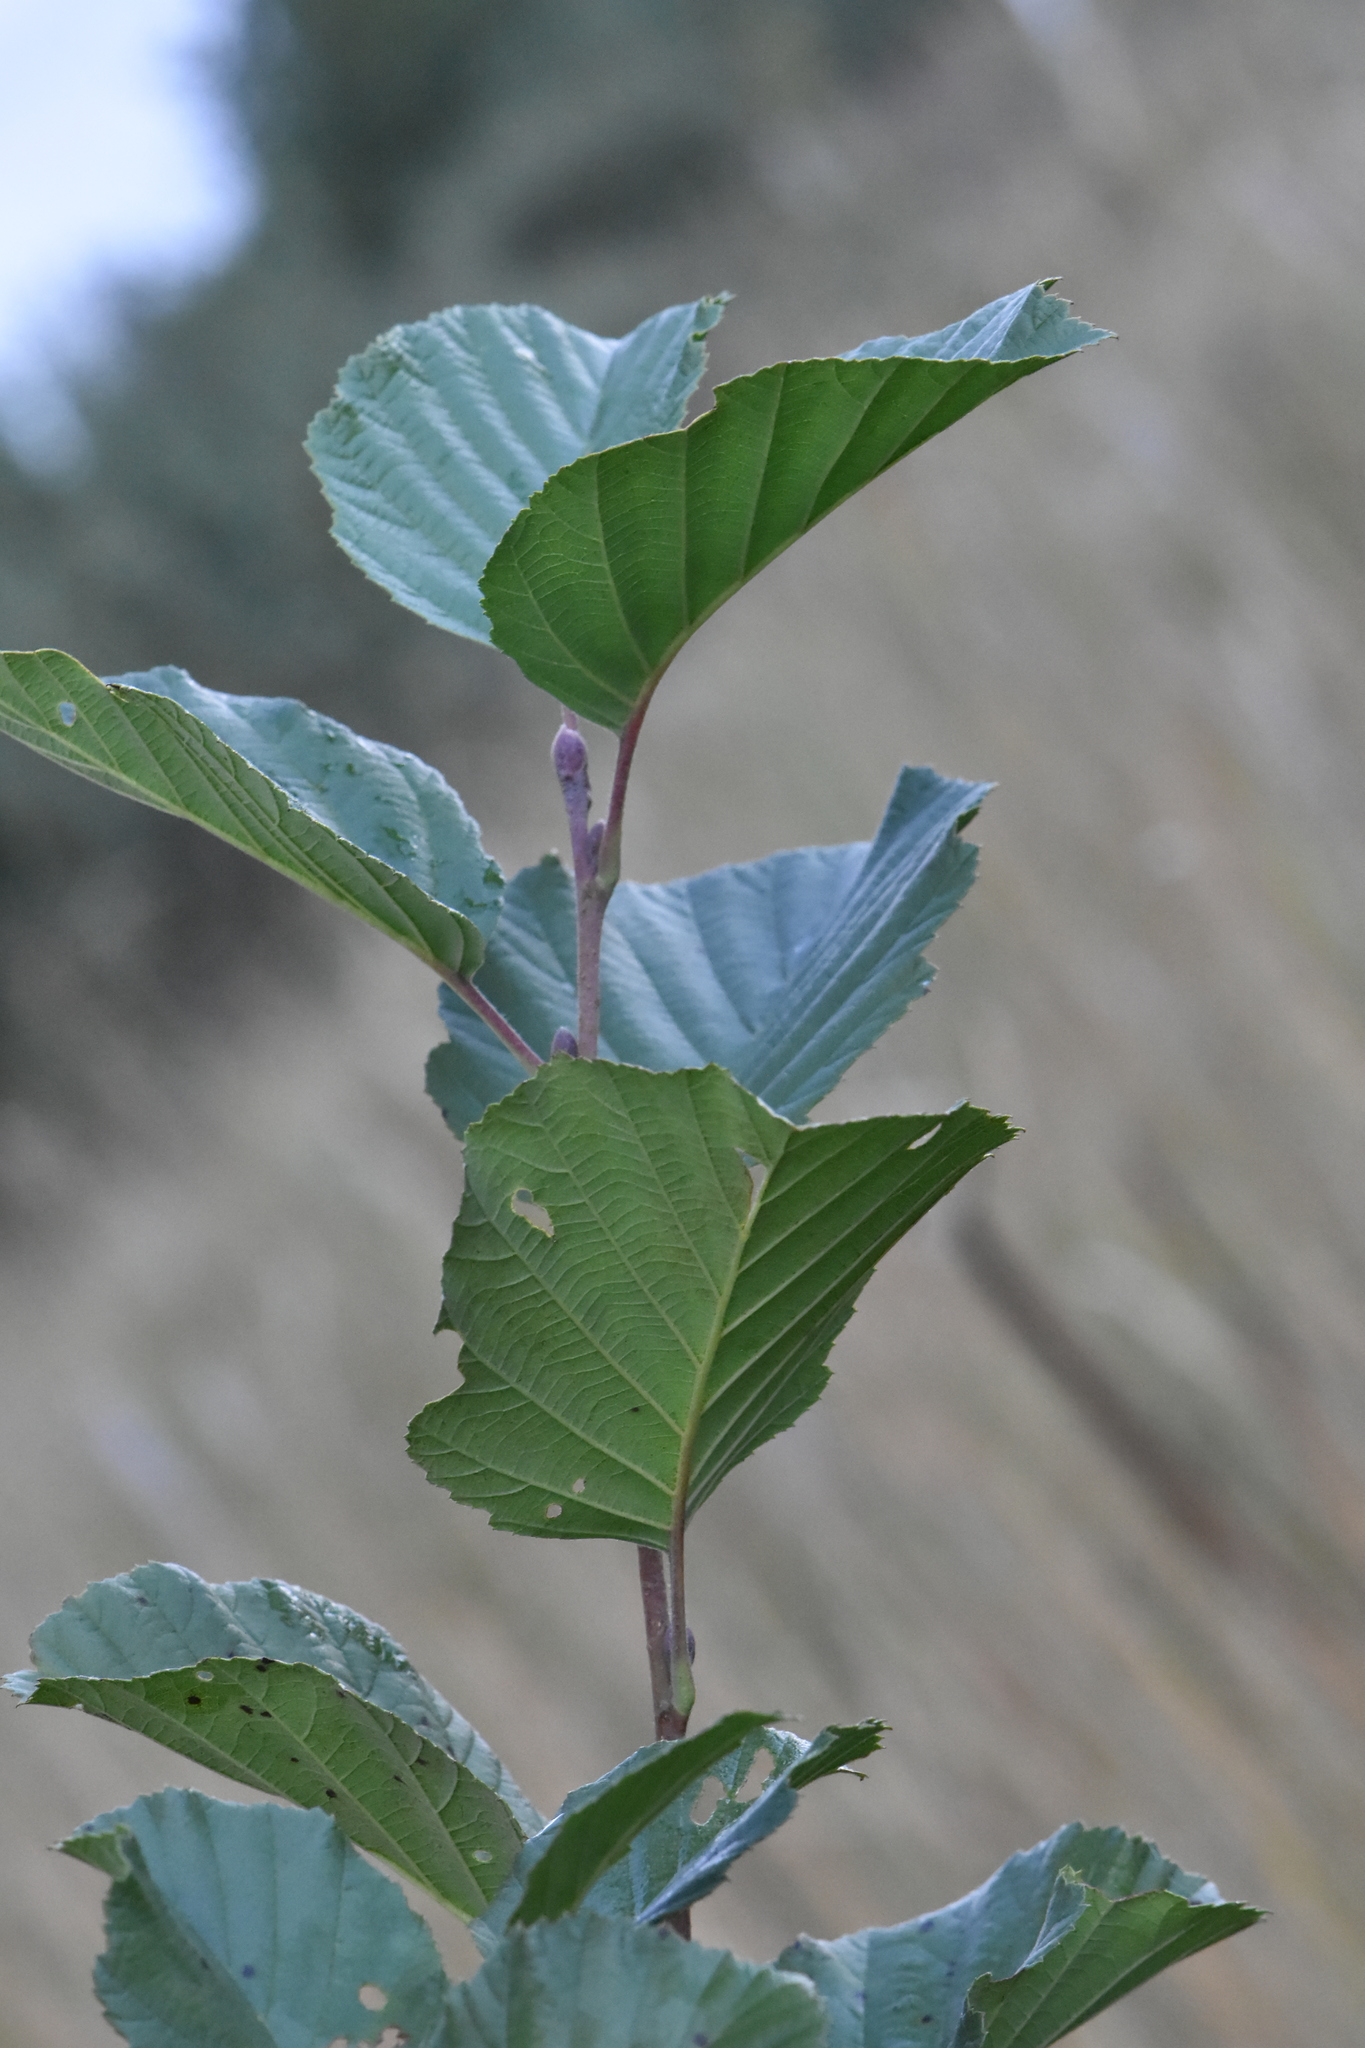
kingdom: Plantae
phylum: Tracheophyta
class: Magnoliopsida
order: Fagales
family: Betulaceae
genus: Alnus
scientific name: Alnus incana
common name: Grey alder
